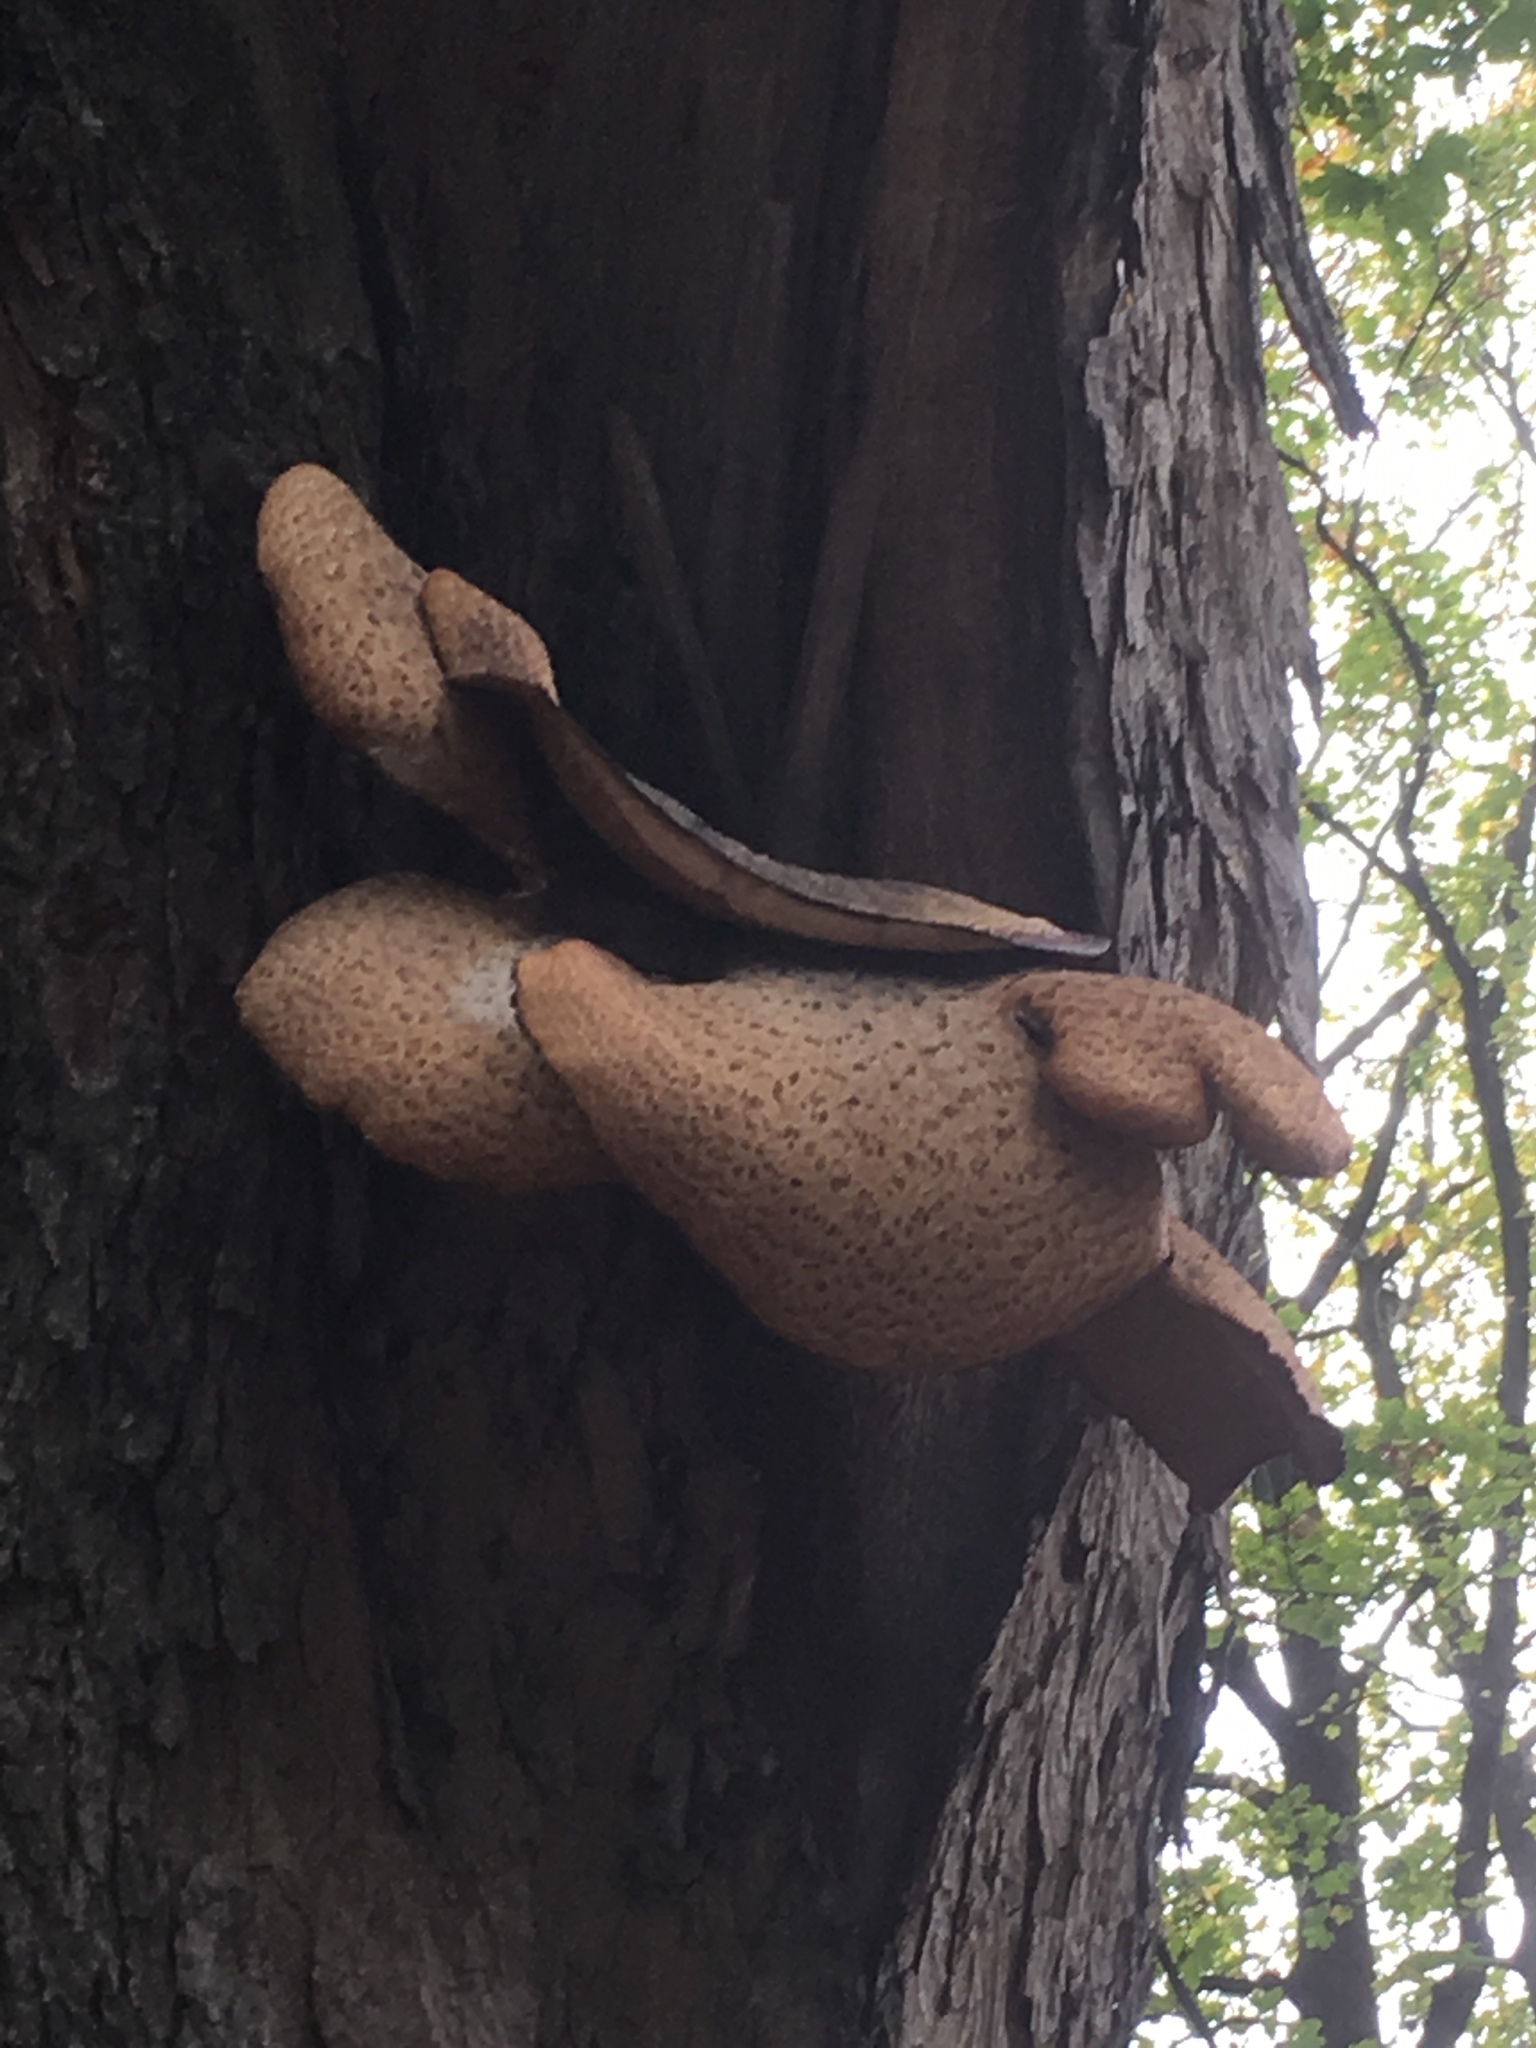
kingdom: Fungi
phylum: Basidiomycota
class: Agaricomycetes
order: Polyporales
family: Polyporaceae
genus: Cerioporus
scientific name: Cerioporus squamosus
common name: Dryad's saddle
